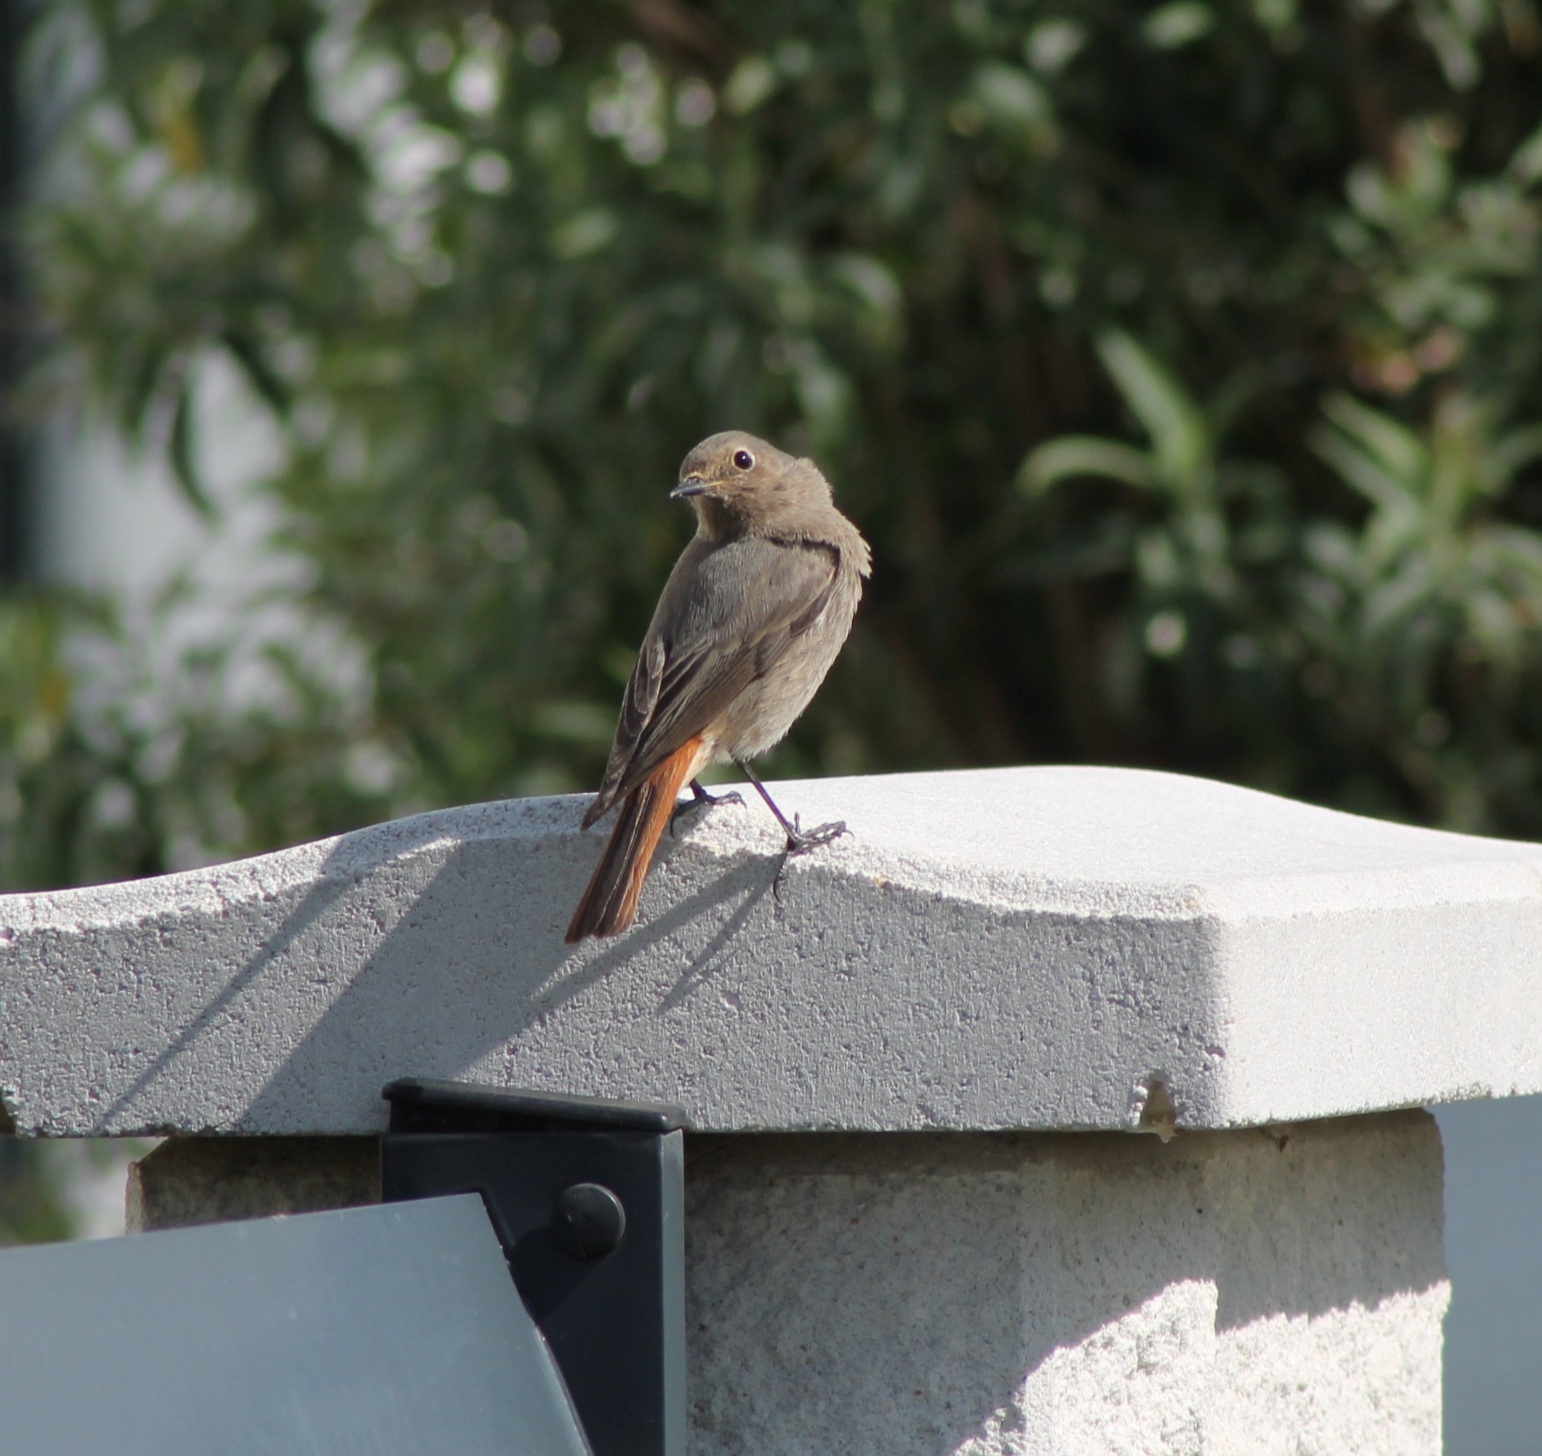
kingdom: Animalia
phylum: Chordata
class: Aves
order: Passeriformes
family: Muscicapidae
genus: Phoenicurus
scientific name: Phoenicurus ochruros
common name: Black redstart
